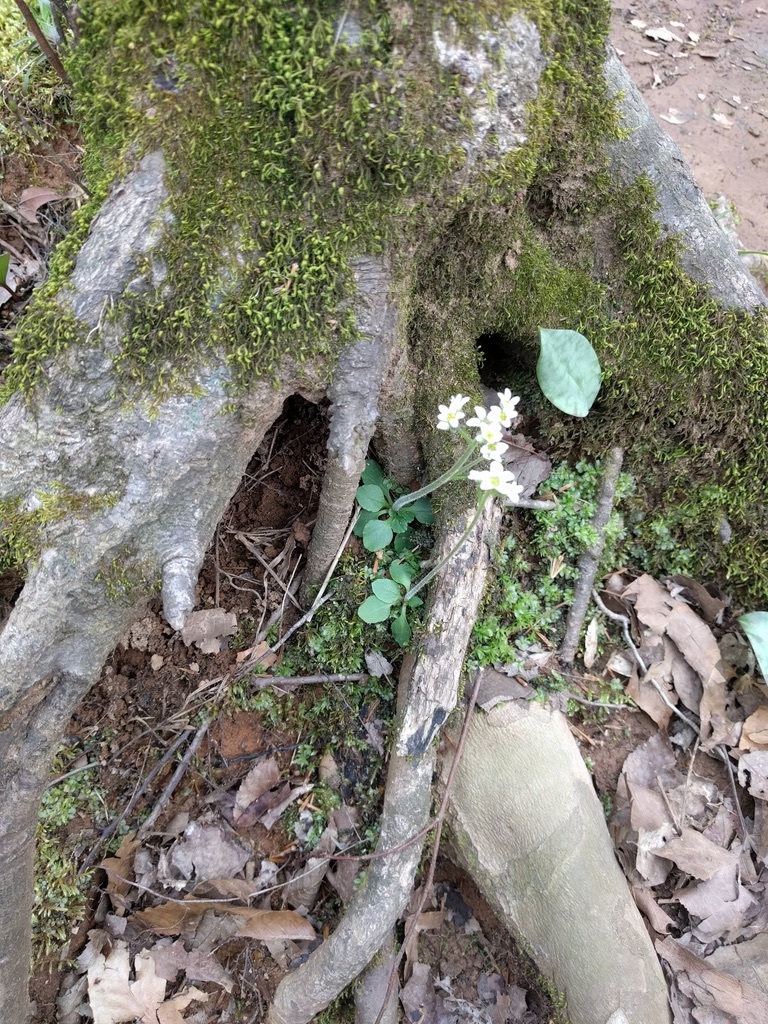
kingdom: Plantae
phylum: Tracheophyta
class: Magnoliopsida
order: Saxifragales
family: Saxifragaceae
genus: Micranthes
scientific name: Micranthes virginiensis
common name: Early saxifrage
